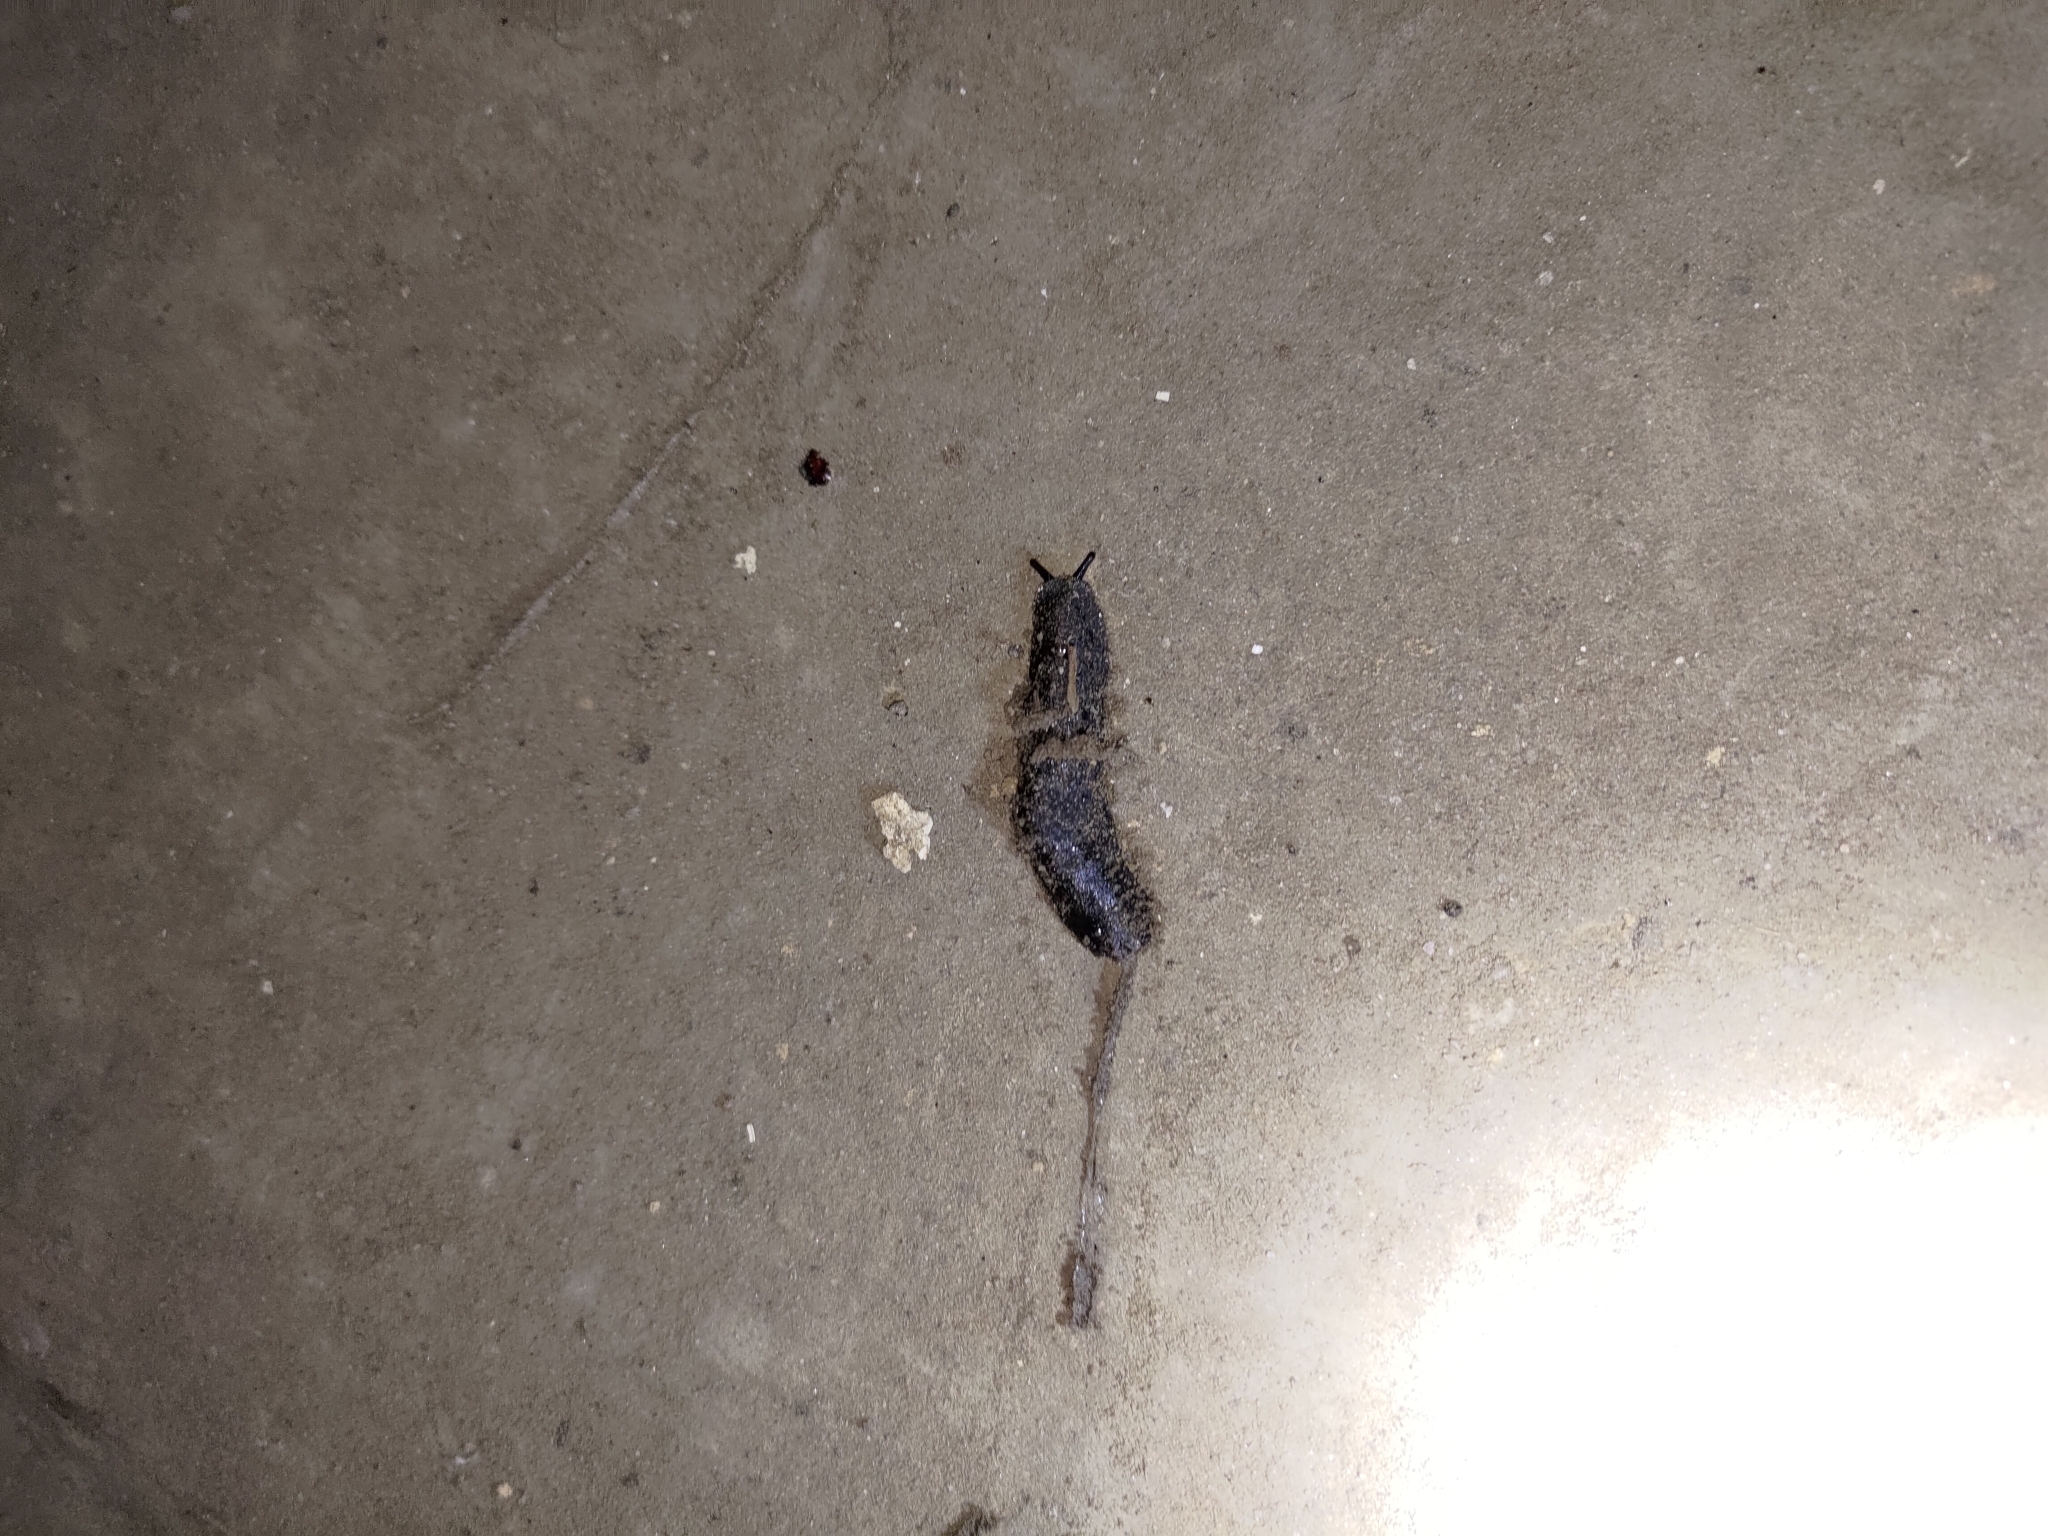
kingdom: Animalia
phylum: Mollusca
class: Gastropoda
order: Systellommatophora
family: Veronicellidae
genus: Laevicaulis
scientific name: Laevicaulis alte
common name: Tropical leatherleaf
